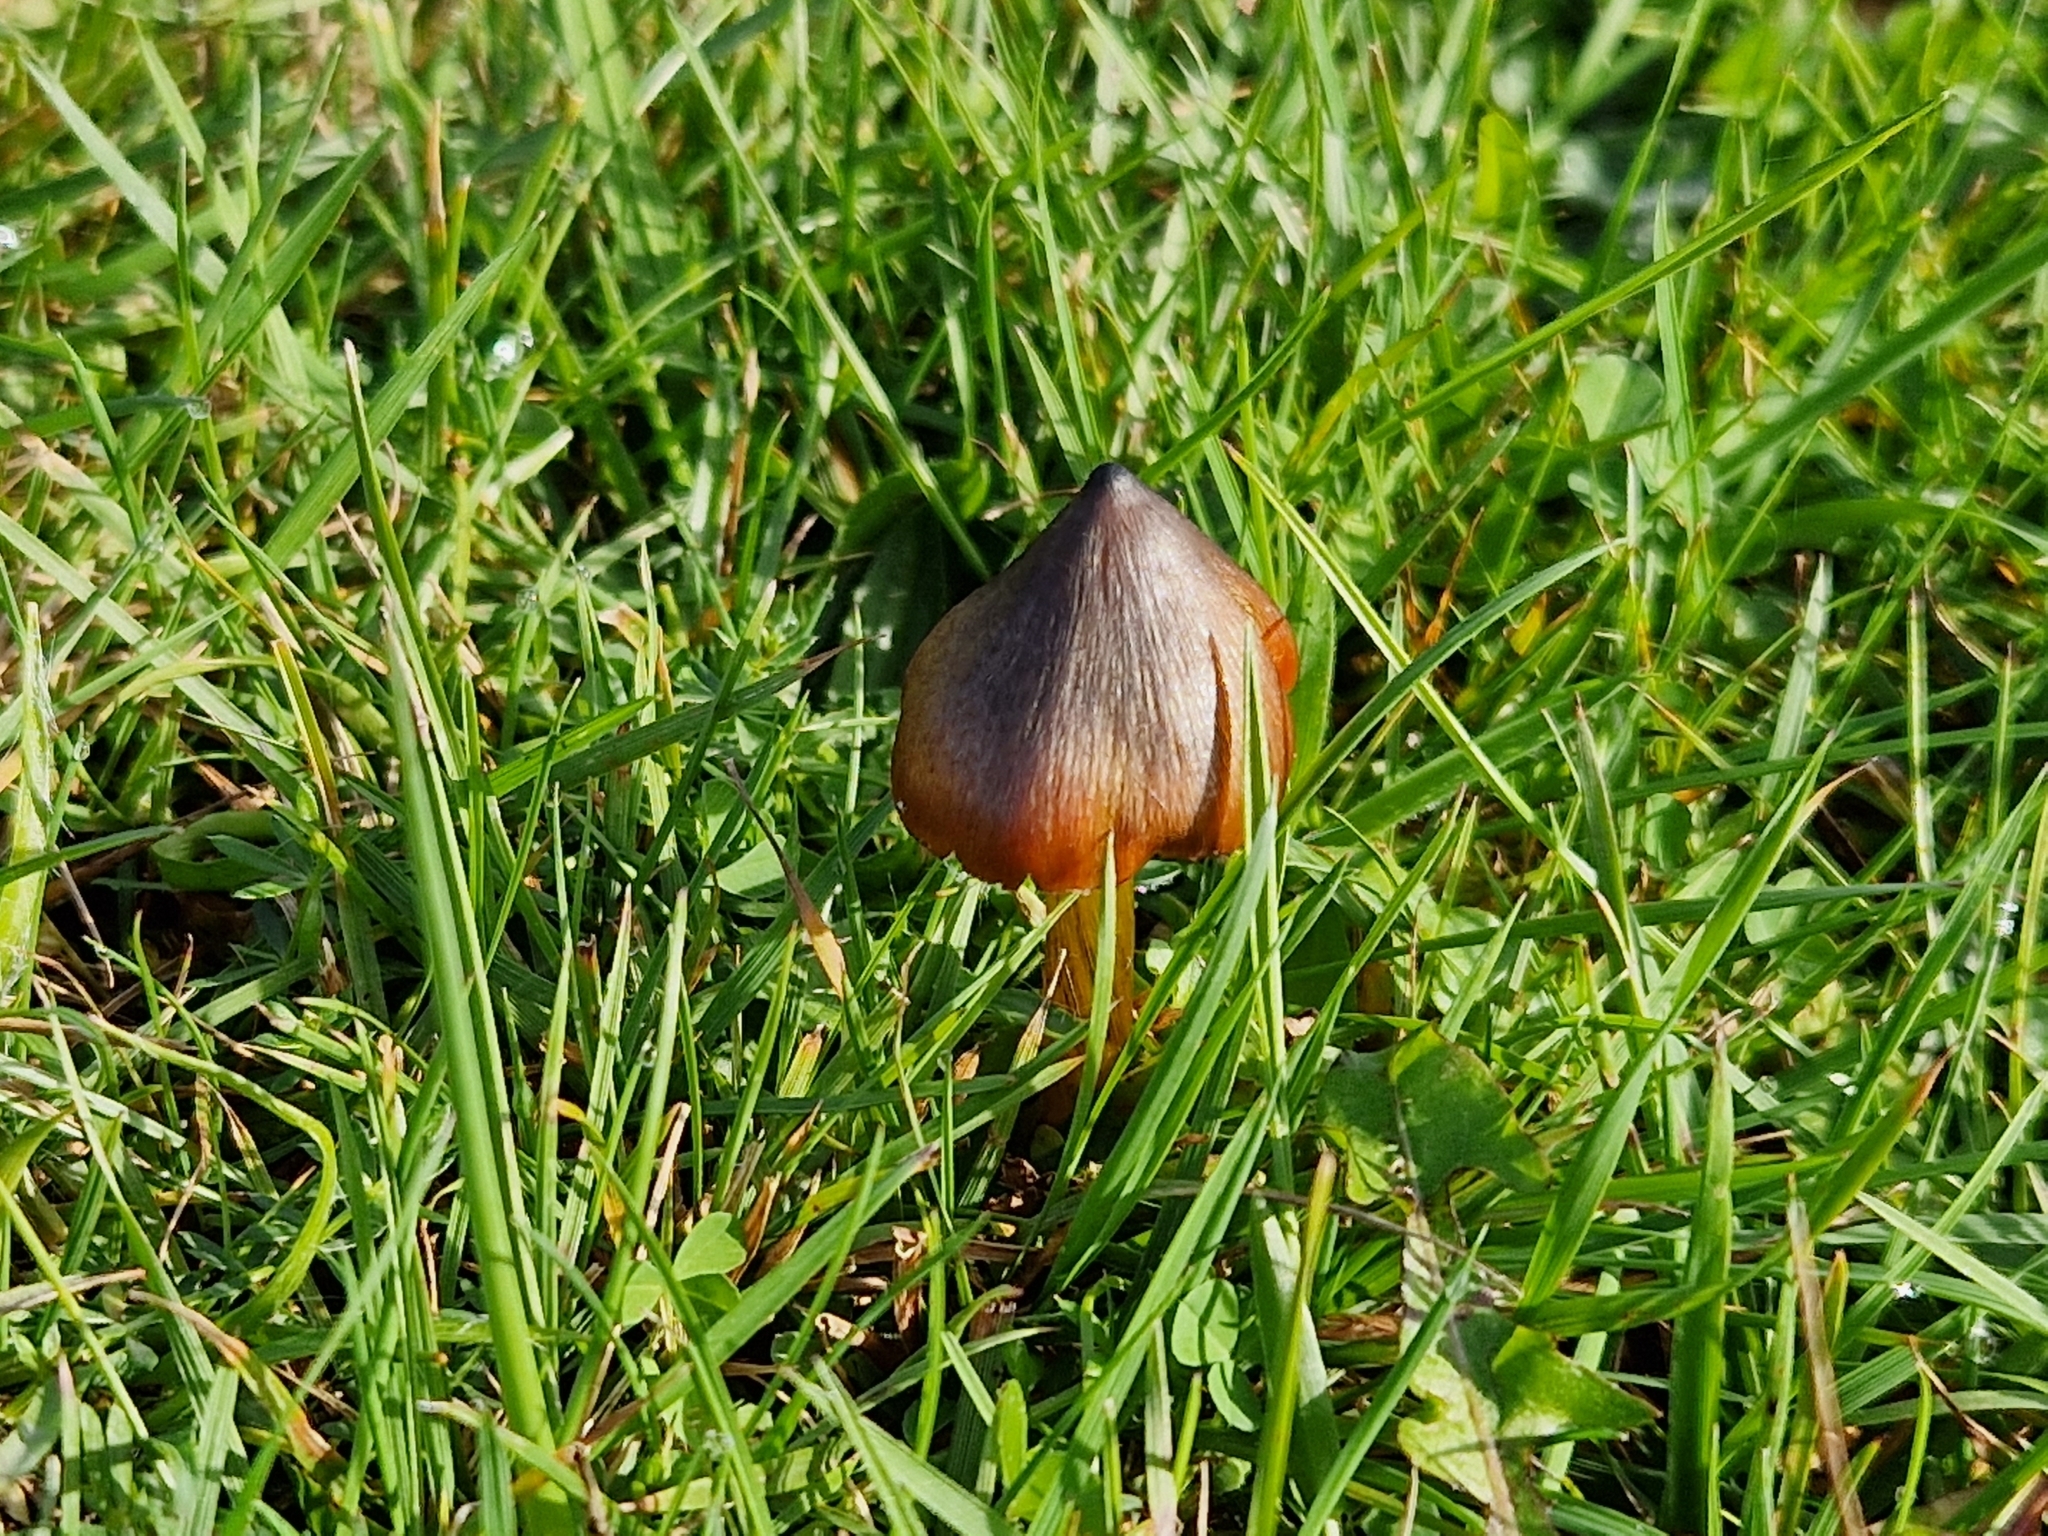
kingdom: Fungi
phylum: Basidiomycota
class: Agaricomycetes
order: Agaricales
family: Hygrophoraceae
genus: Hygrocybe
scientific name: Hygrocybe conica
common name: Blackening wax-cap
